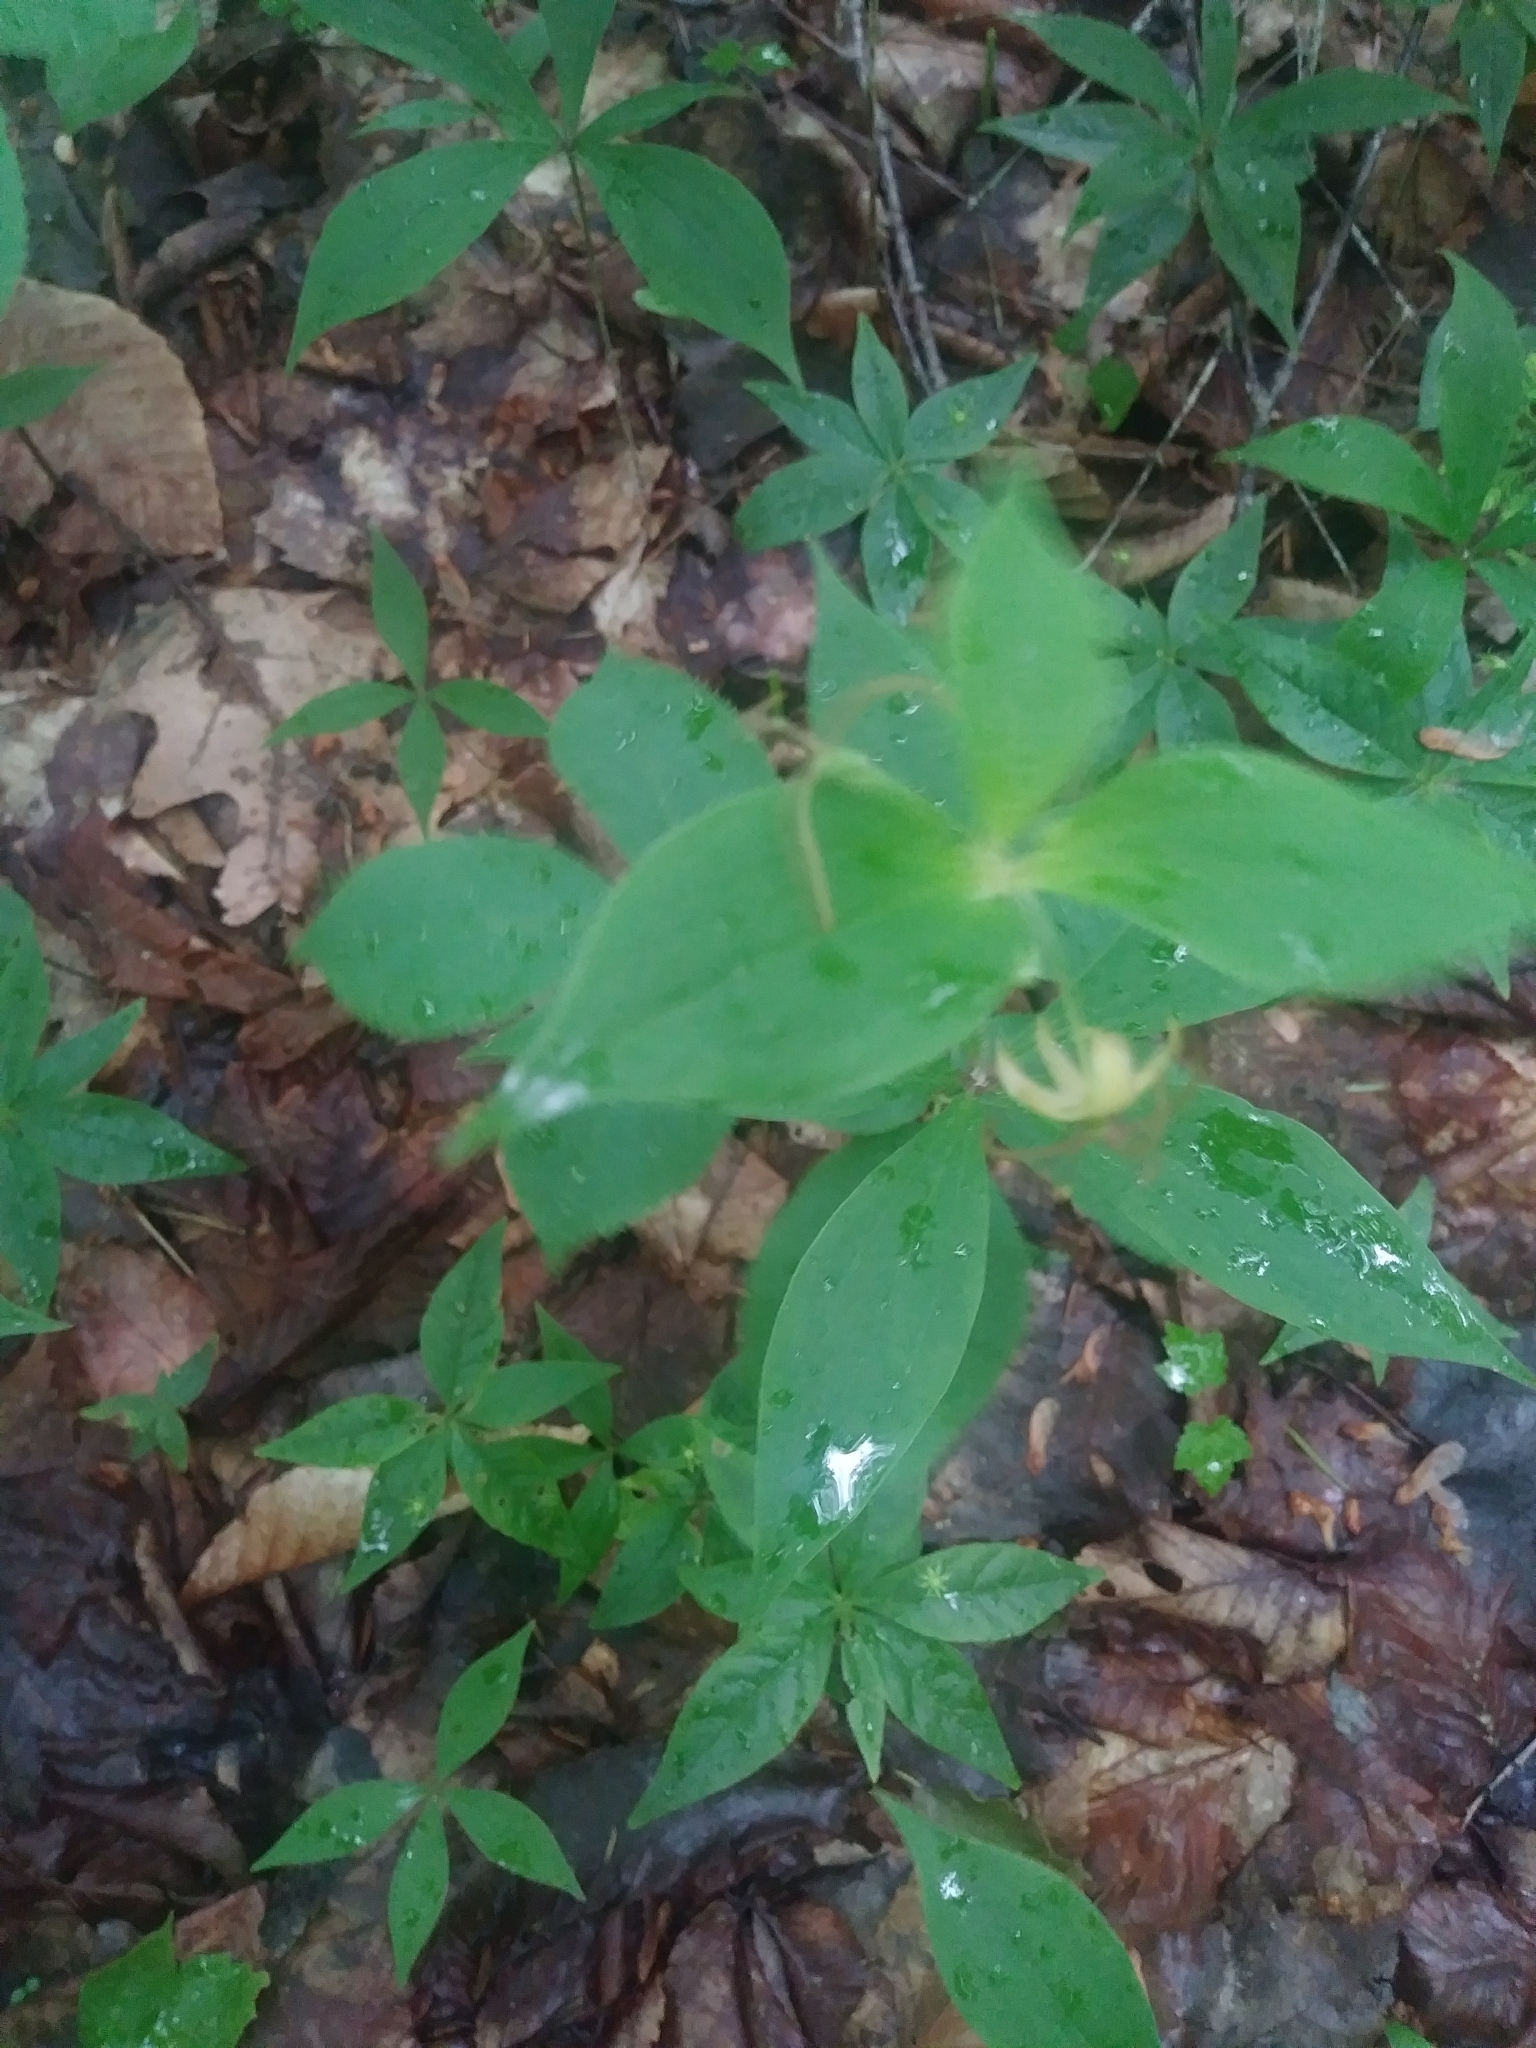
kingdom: Plantae
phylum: Tracheophyta
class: Liliopsida
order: Liliales
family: Liliaceae
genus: Medeola
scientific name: Medeola virginiana
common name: Indian cucumber-root
